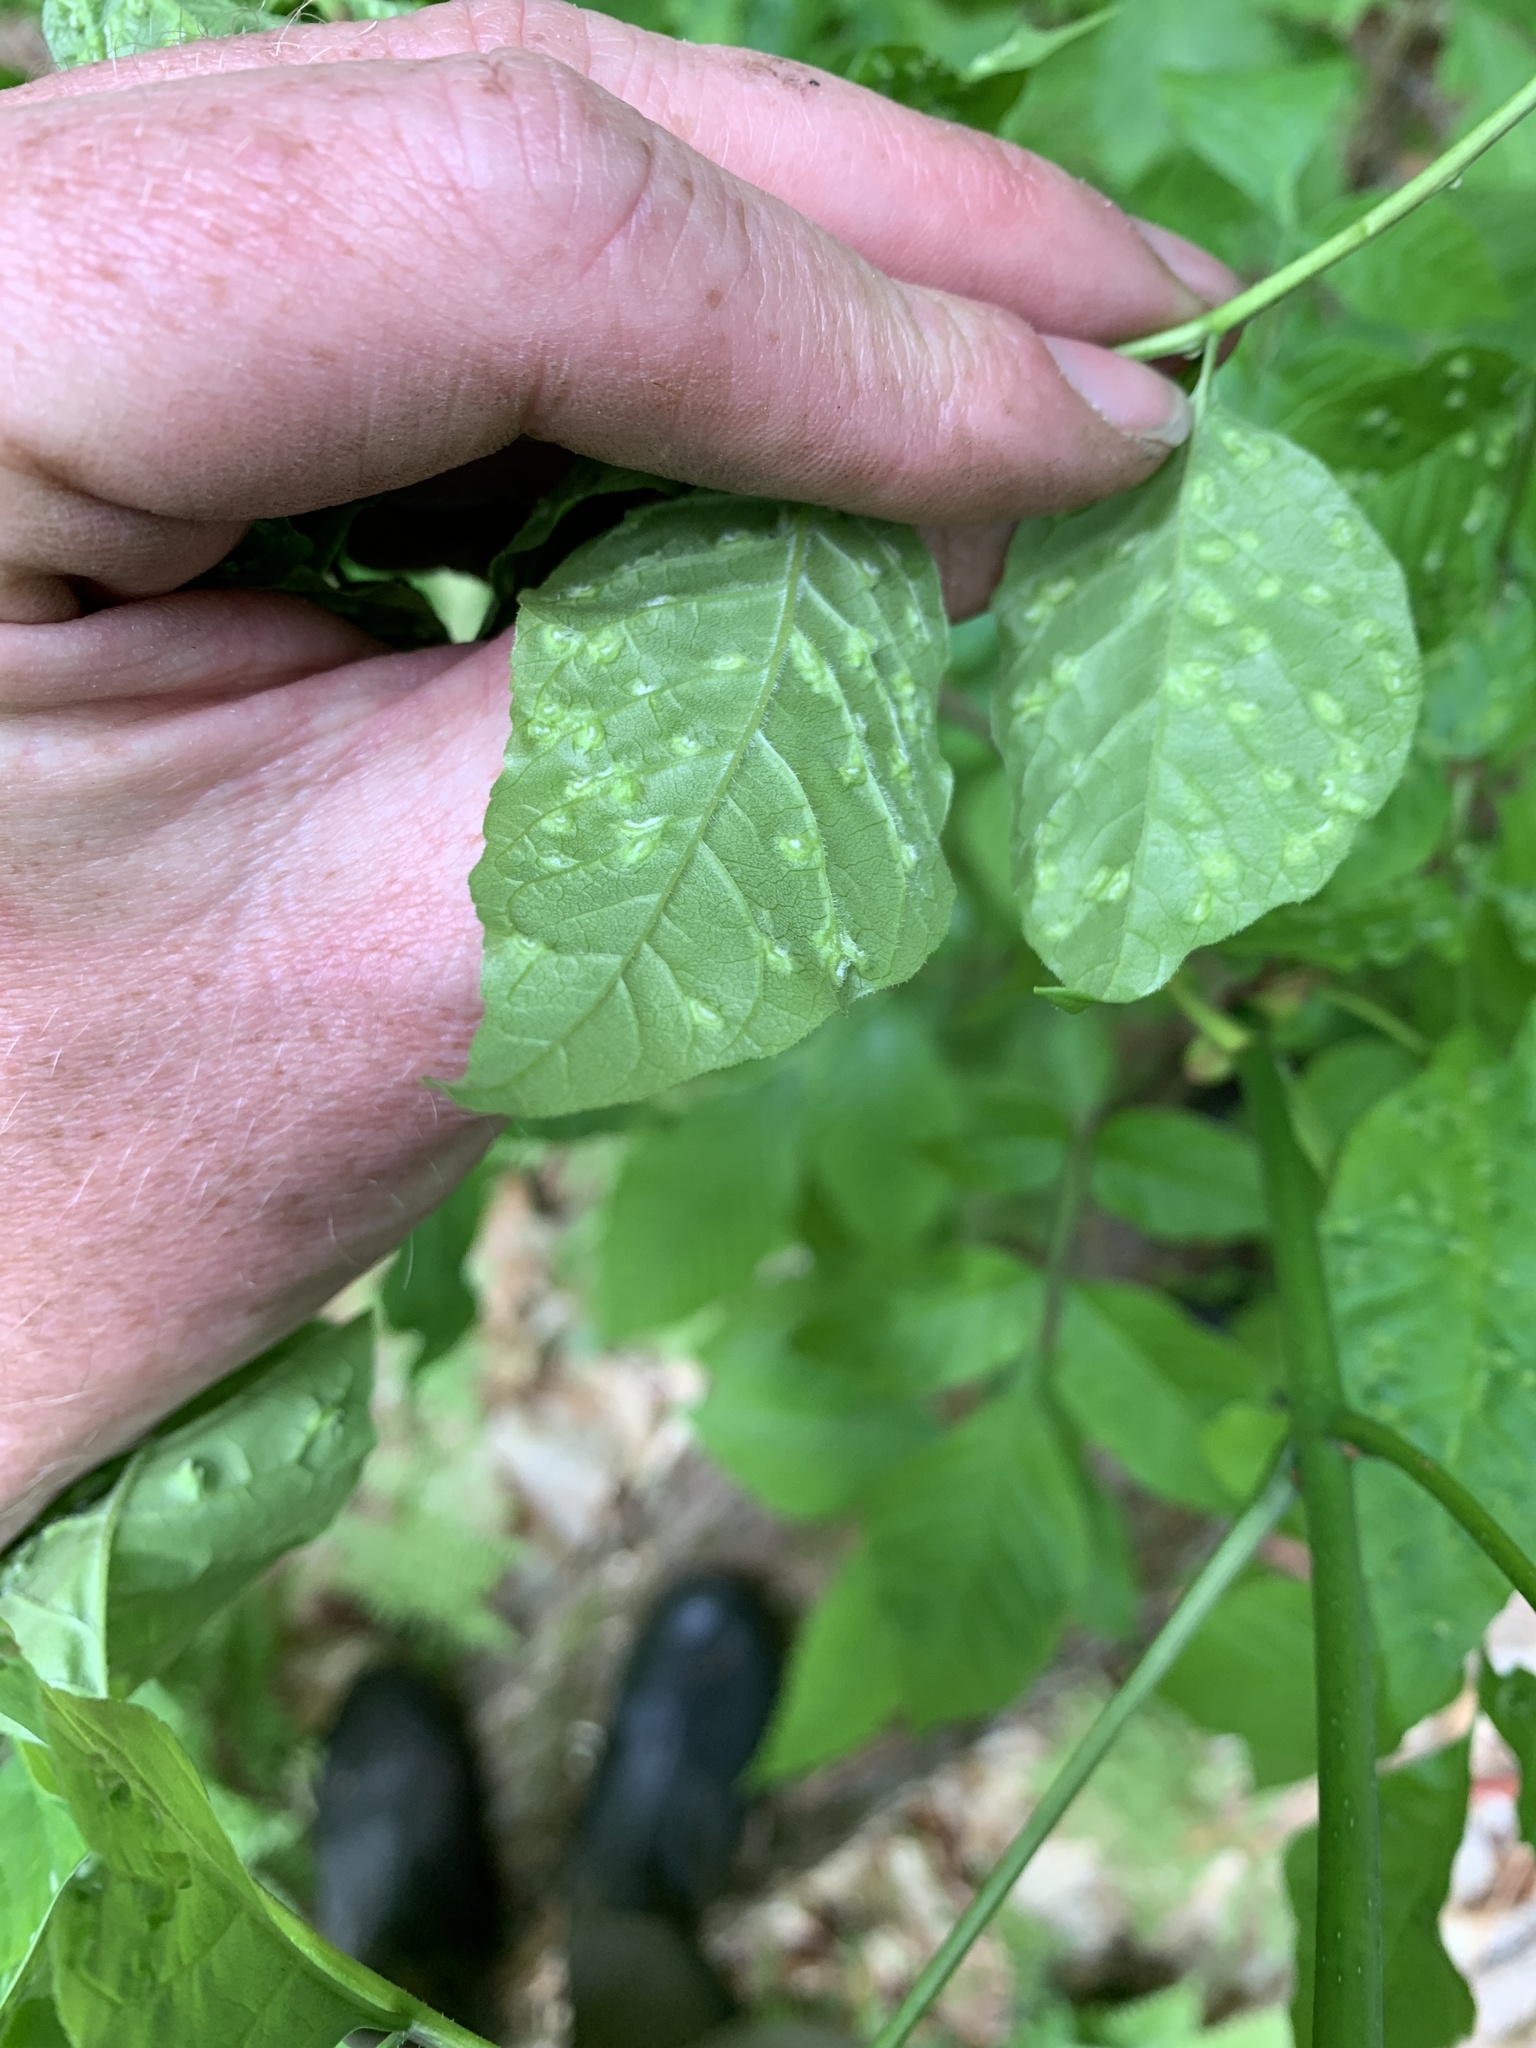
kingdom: Animalia
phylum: Arthropoda
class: Arachnida
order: Trombidiformes
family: Eriophyidae
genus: Aceria
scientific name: Aceria fraxinicola
